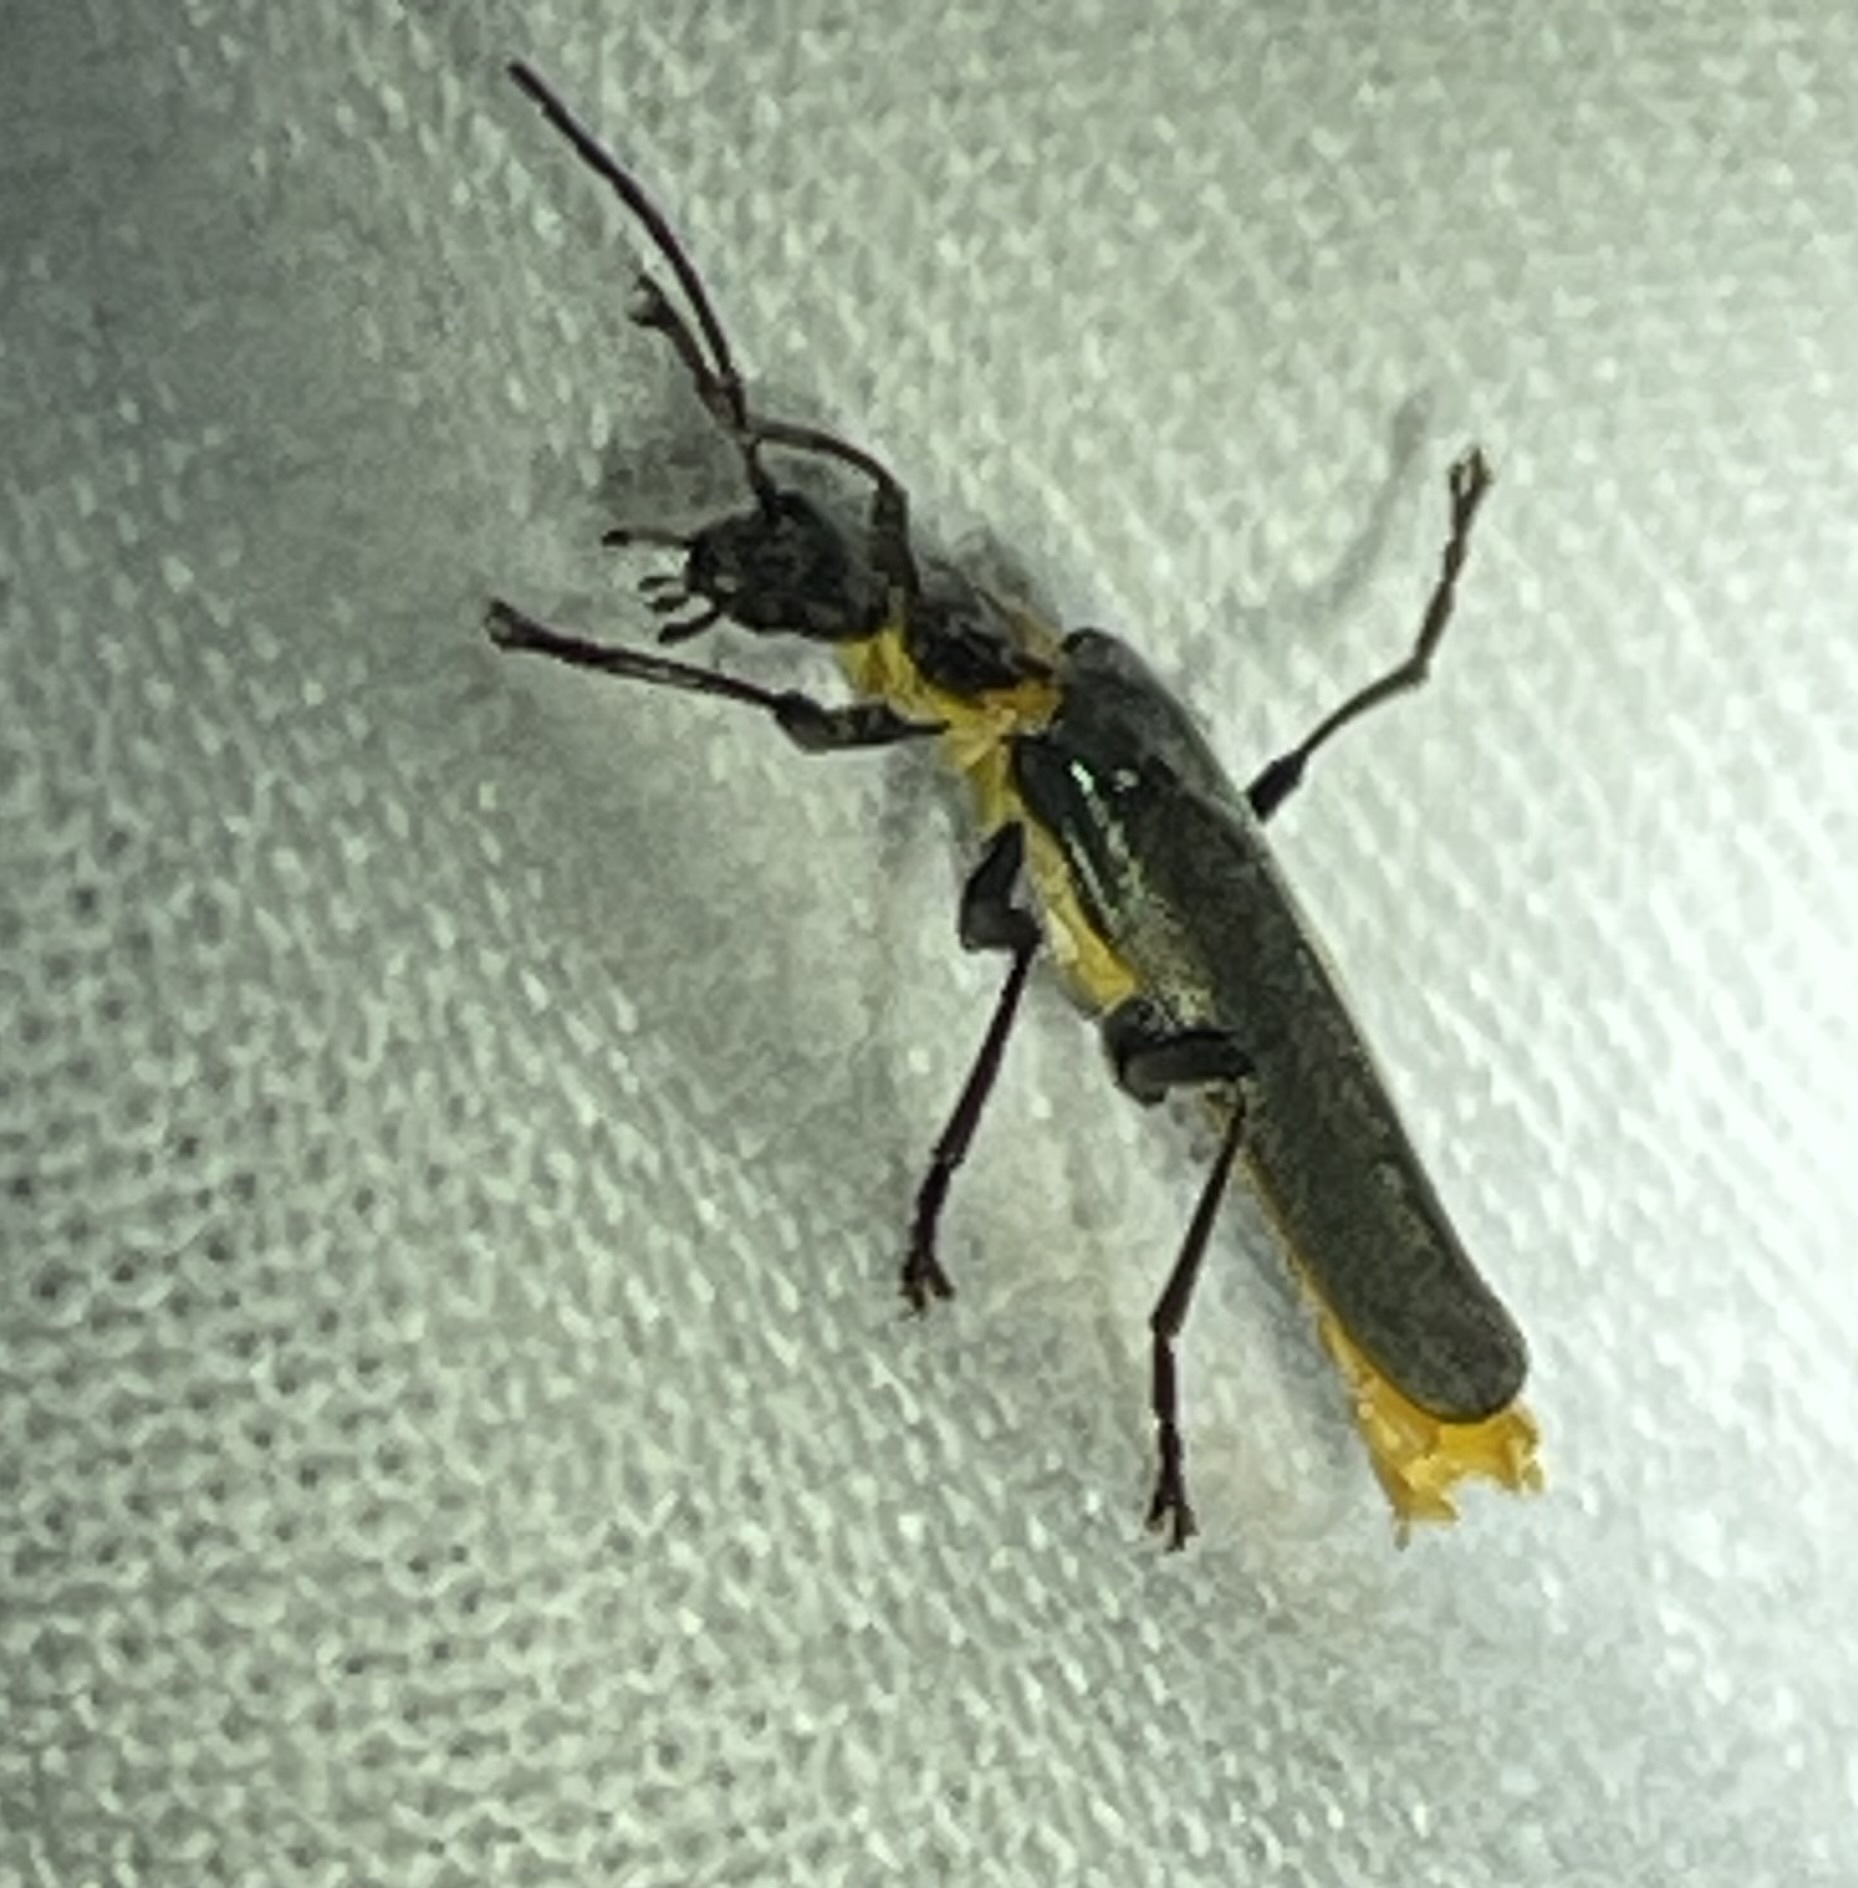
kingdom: Animalia
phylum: Arthropoda
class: Insecta
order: Coleoptera
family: Cantharidae
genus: Chauliognathus
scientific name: Chauliognathus
